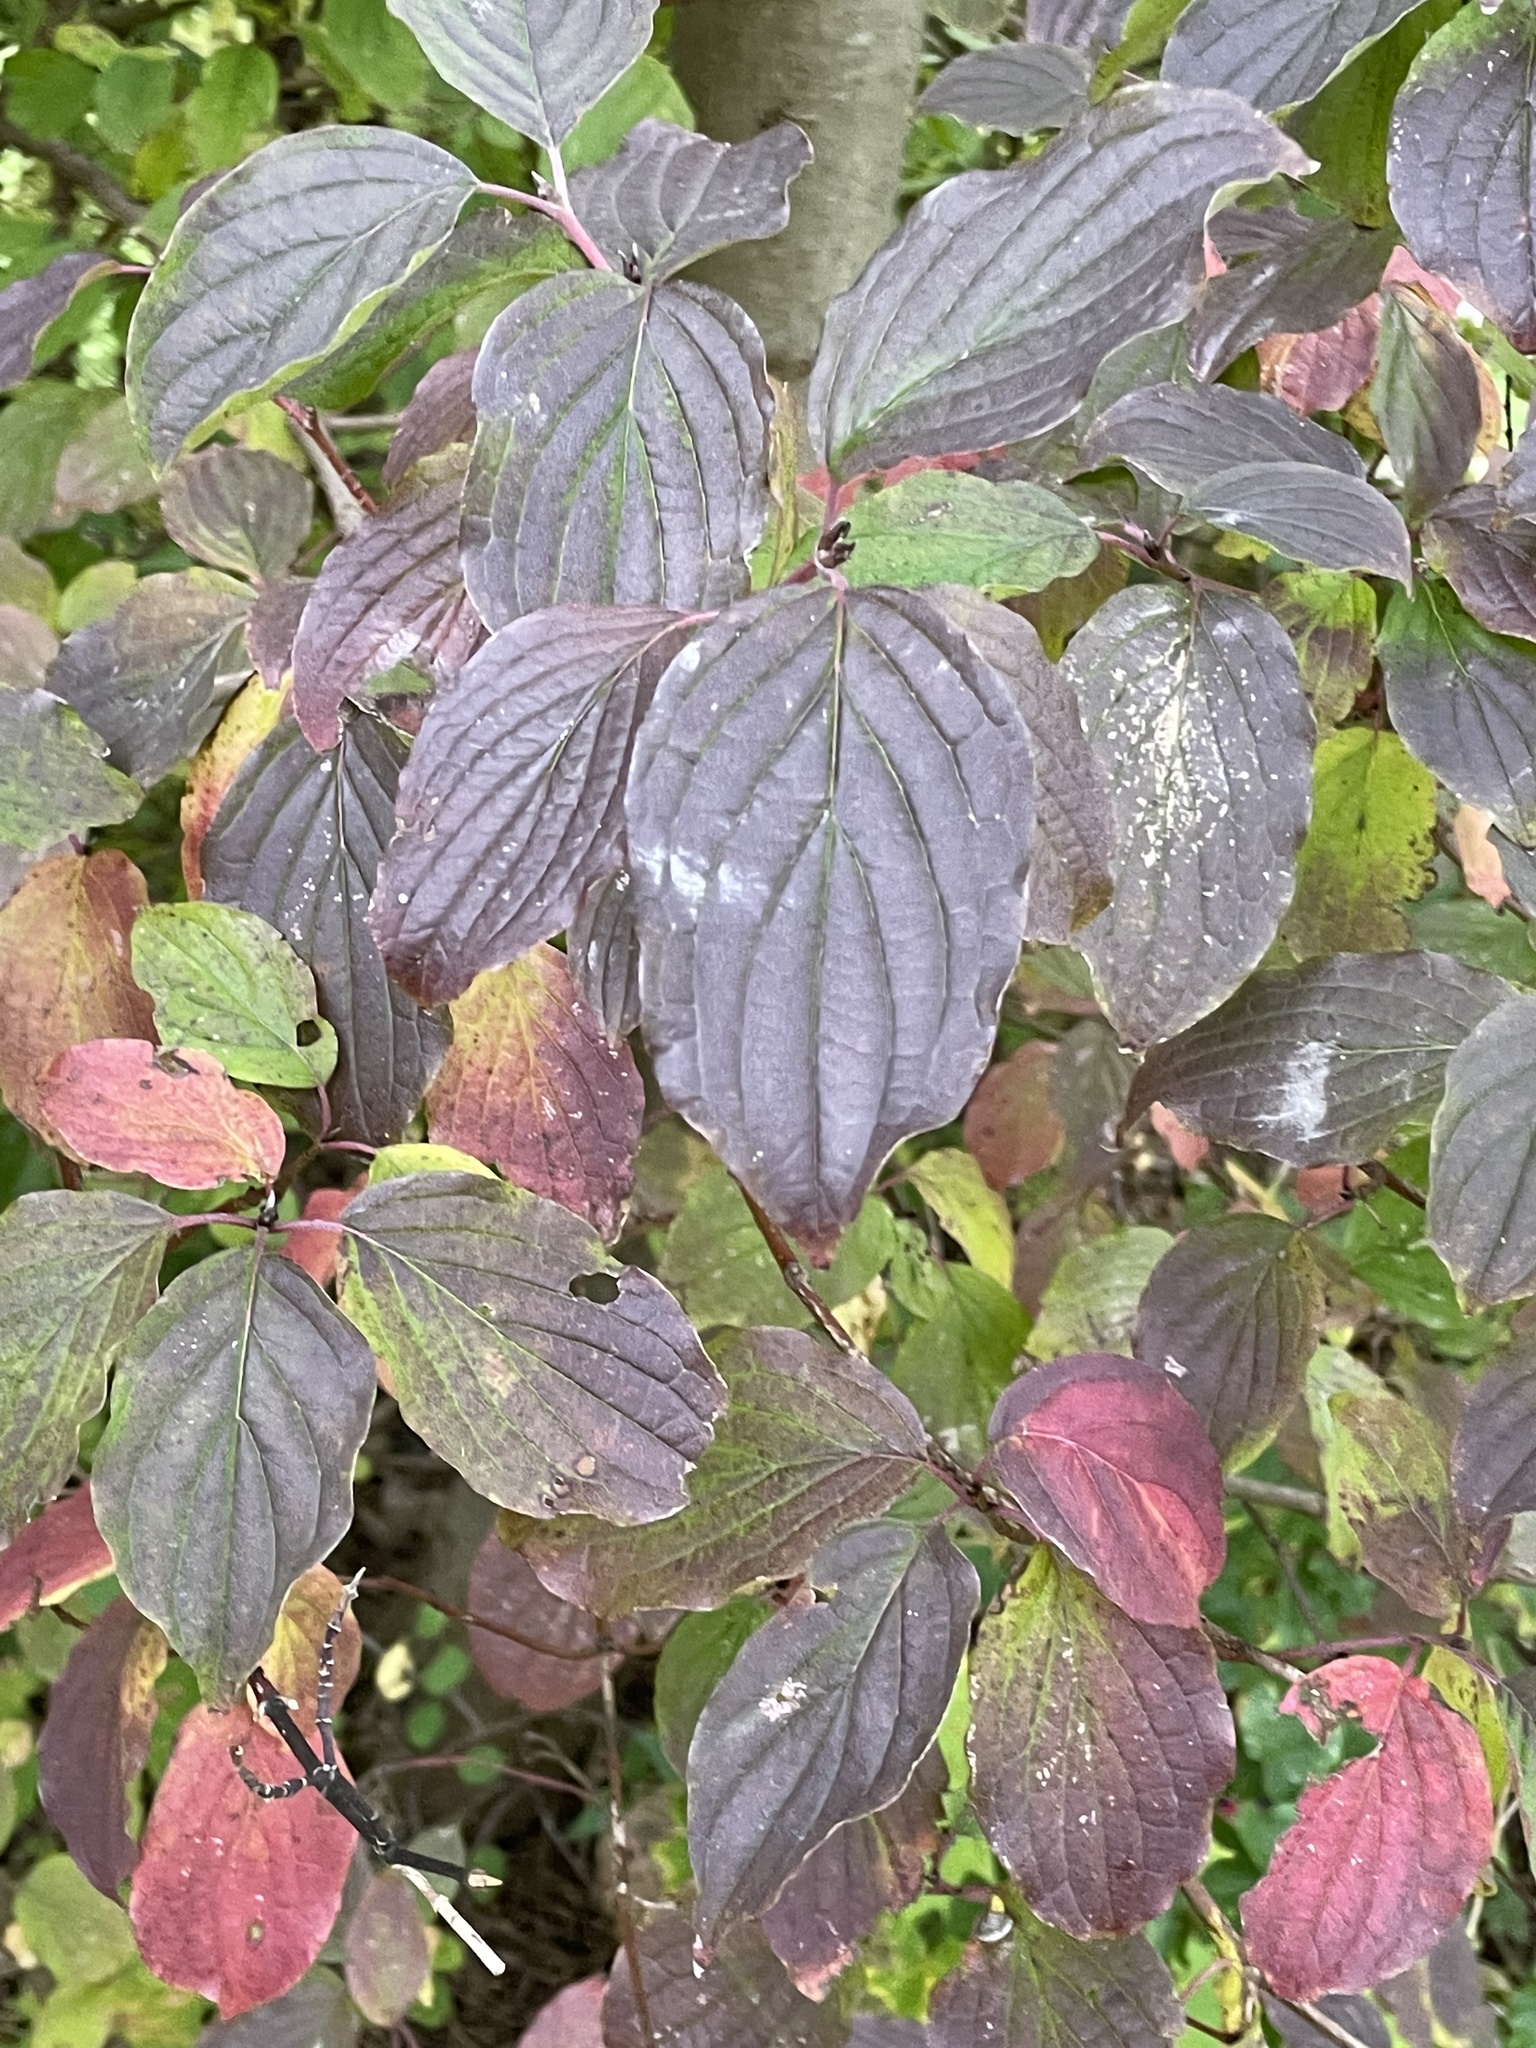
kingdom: Plantae
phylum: Tracheophyta
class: Magnoliopsida
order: Cornales
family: Cornaceae
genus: Cornus
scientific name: Cornus sanguinea
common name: Dogwood
